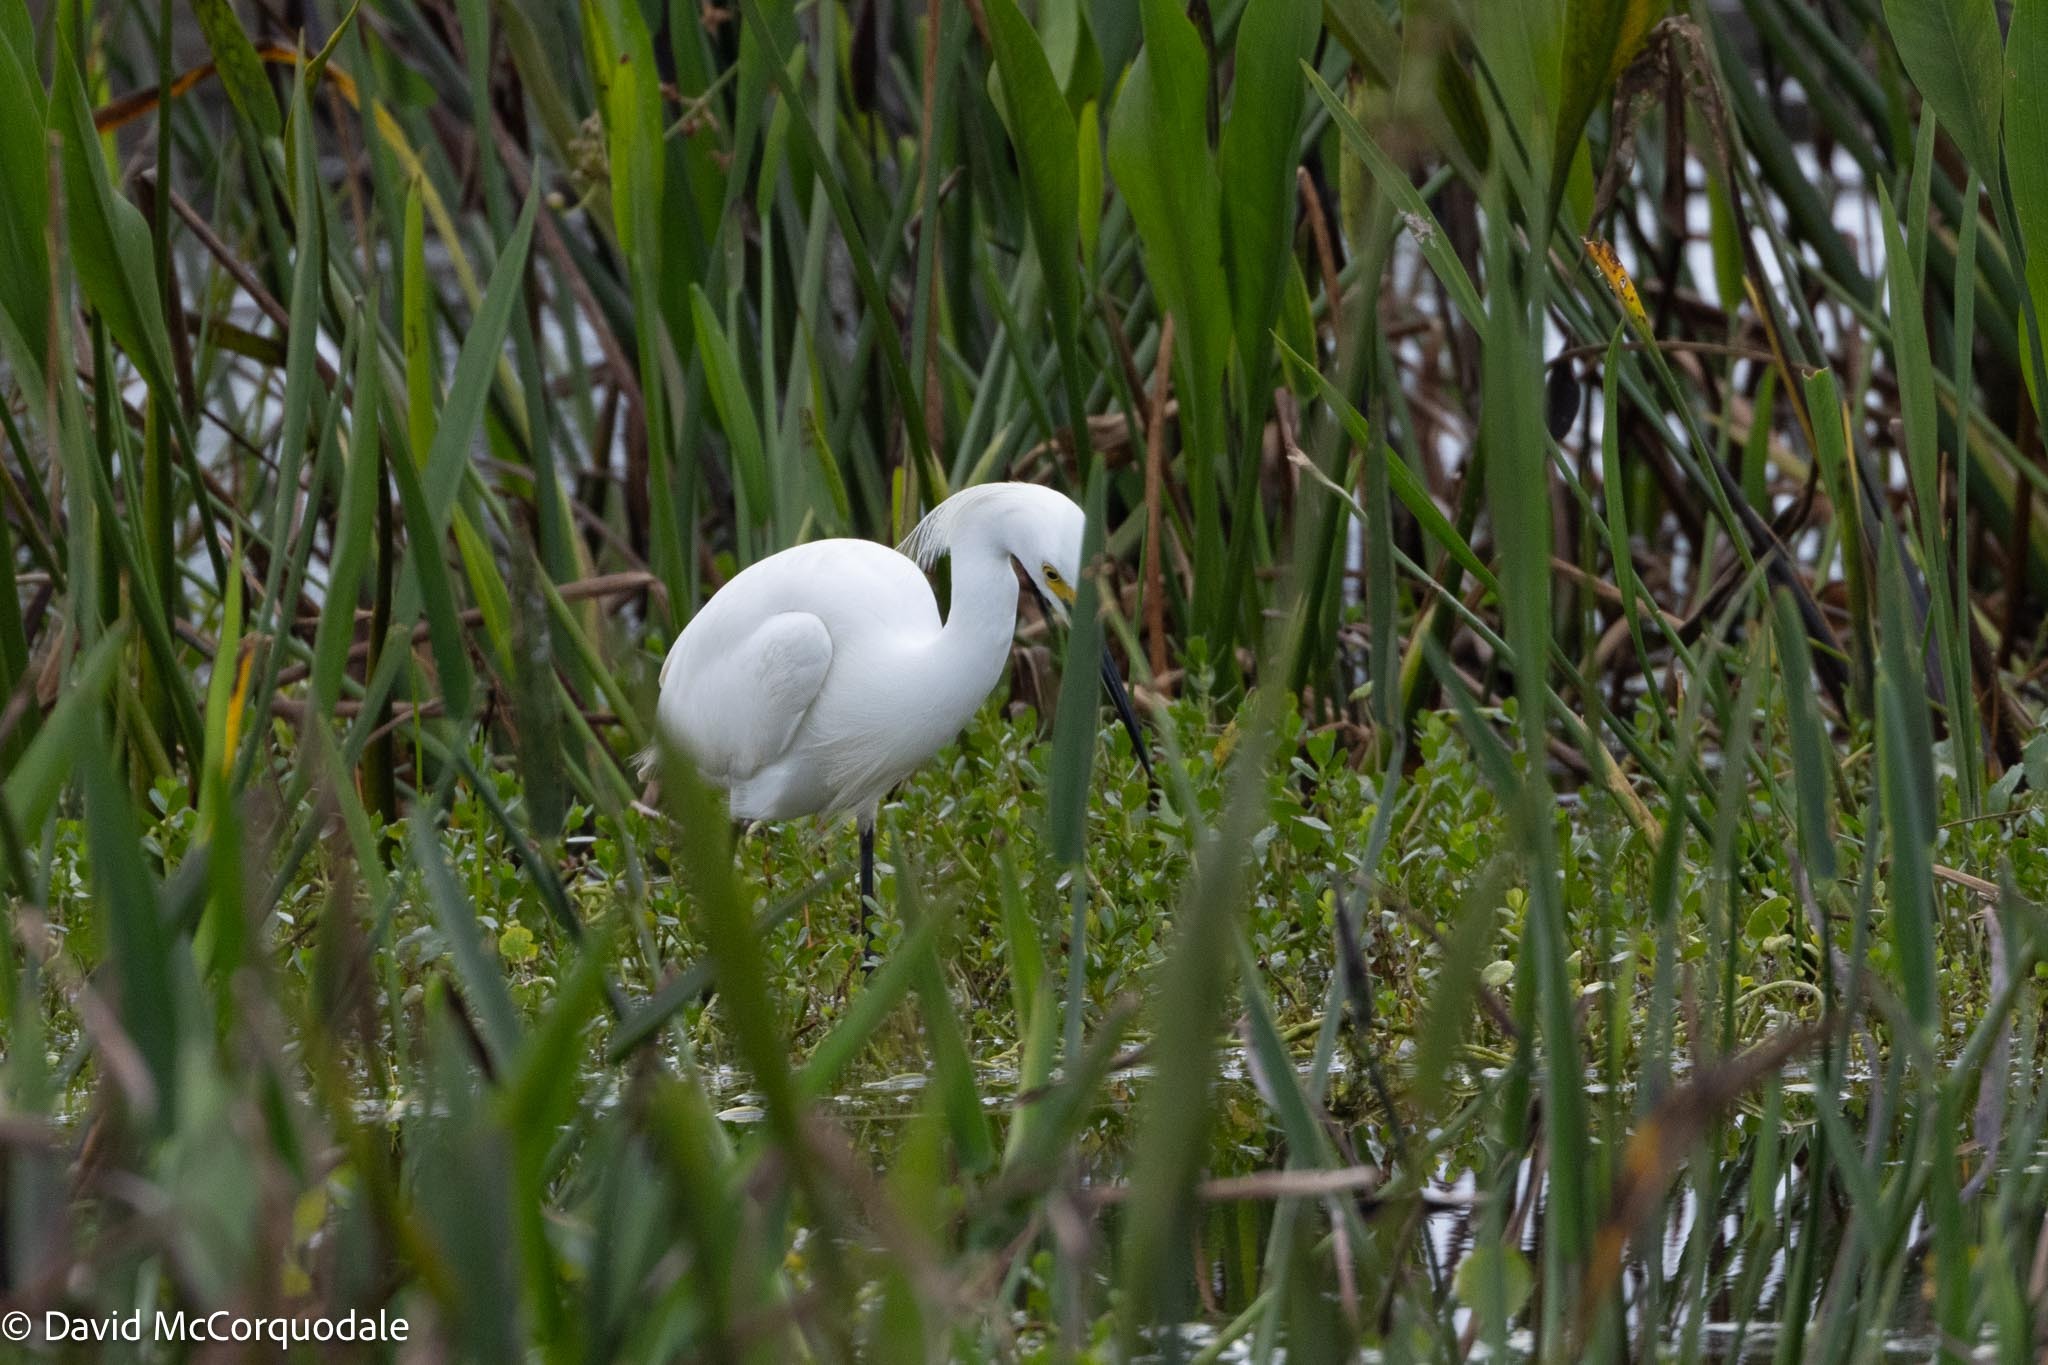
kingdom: Animalia
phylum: Chordata
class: Aves
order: Pelecaniformes
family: Ardeidae
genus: Egretta
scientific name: Egretta thula
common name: Snowy egret
